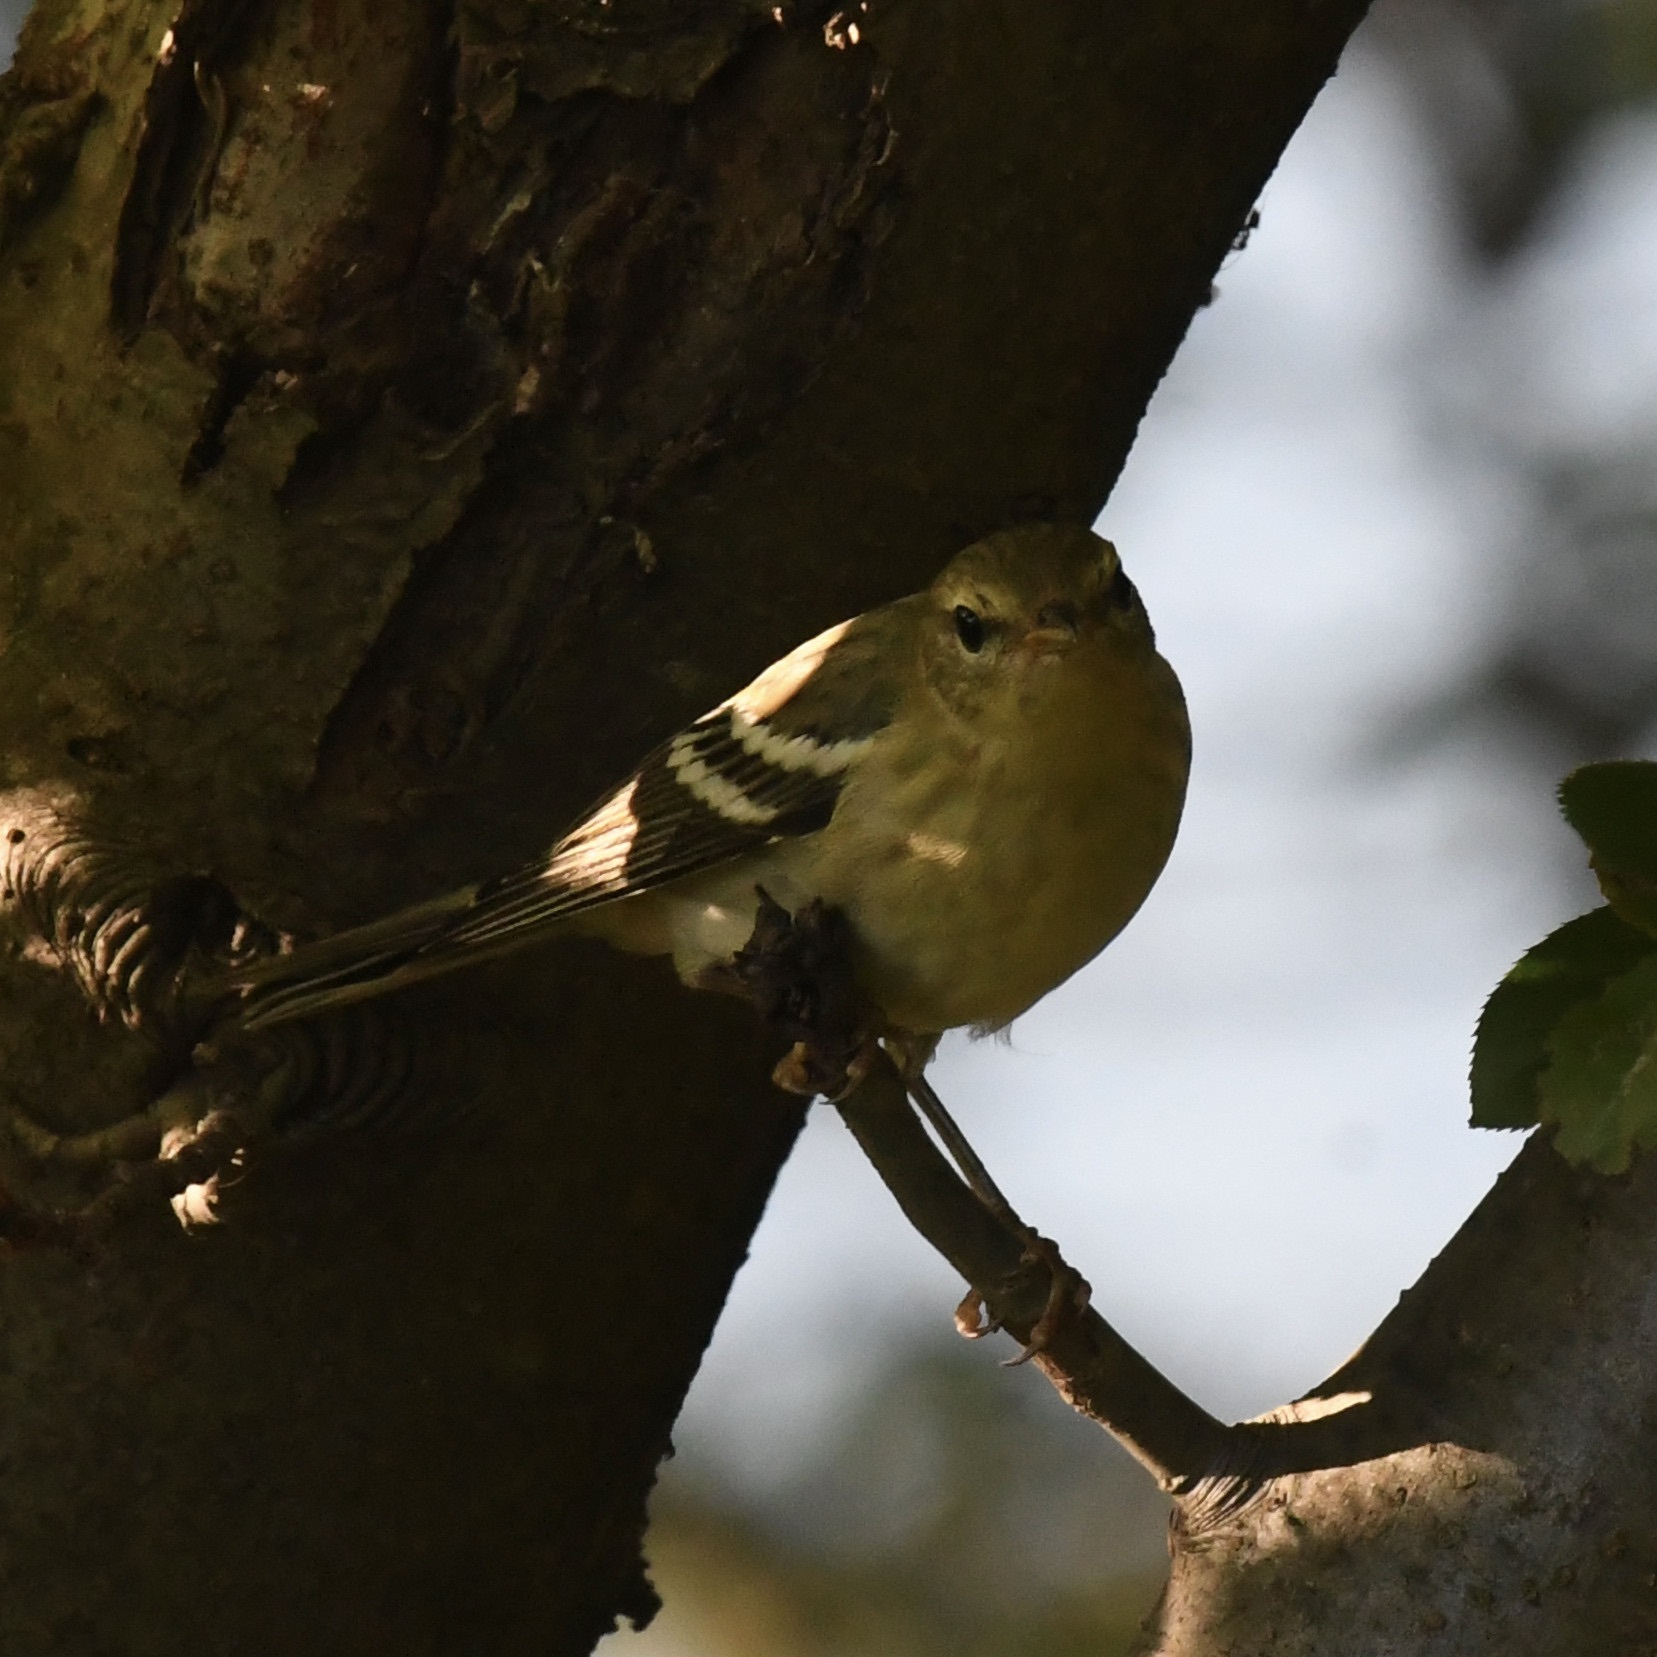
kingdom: Animalia
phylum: Chordata
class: Aves
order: Passeriformes
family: Parulidae
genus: Setophaga
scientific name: Setophaga striata
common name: Blackpoll warbler
